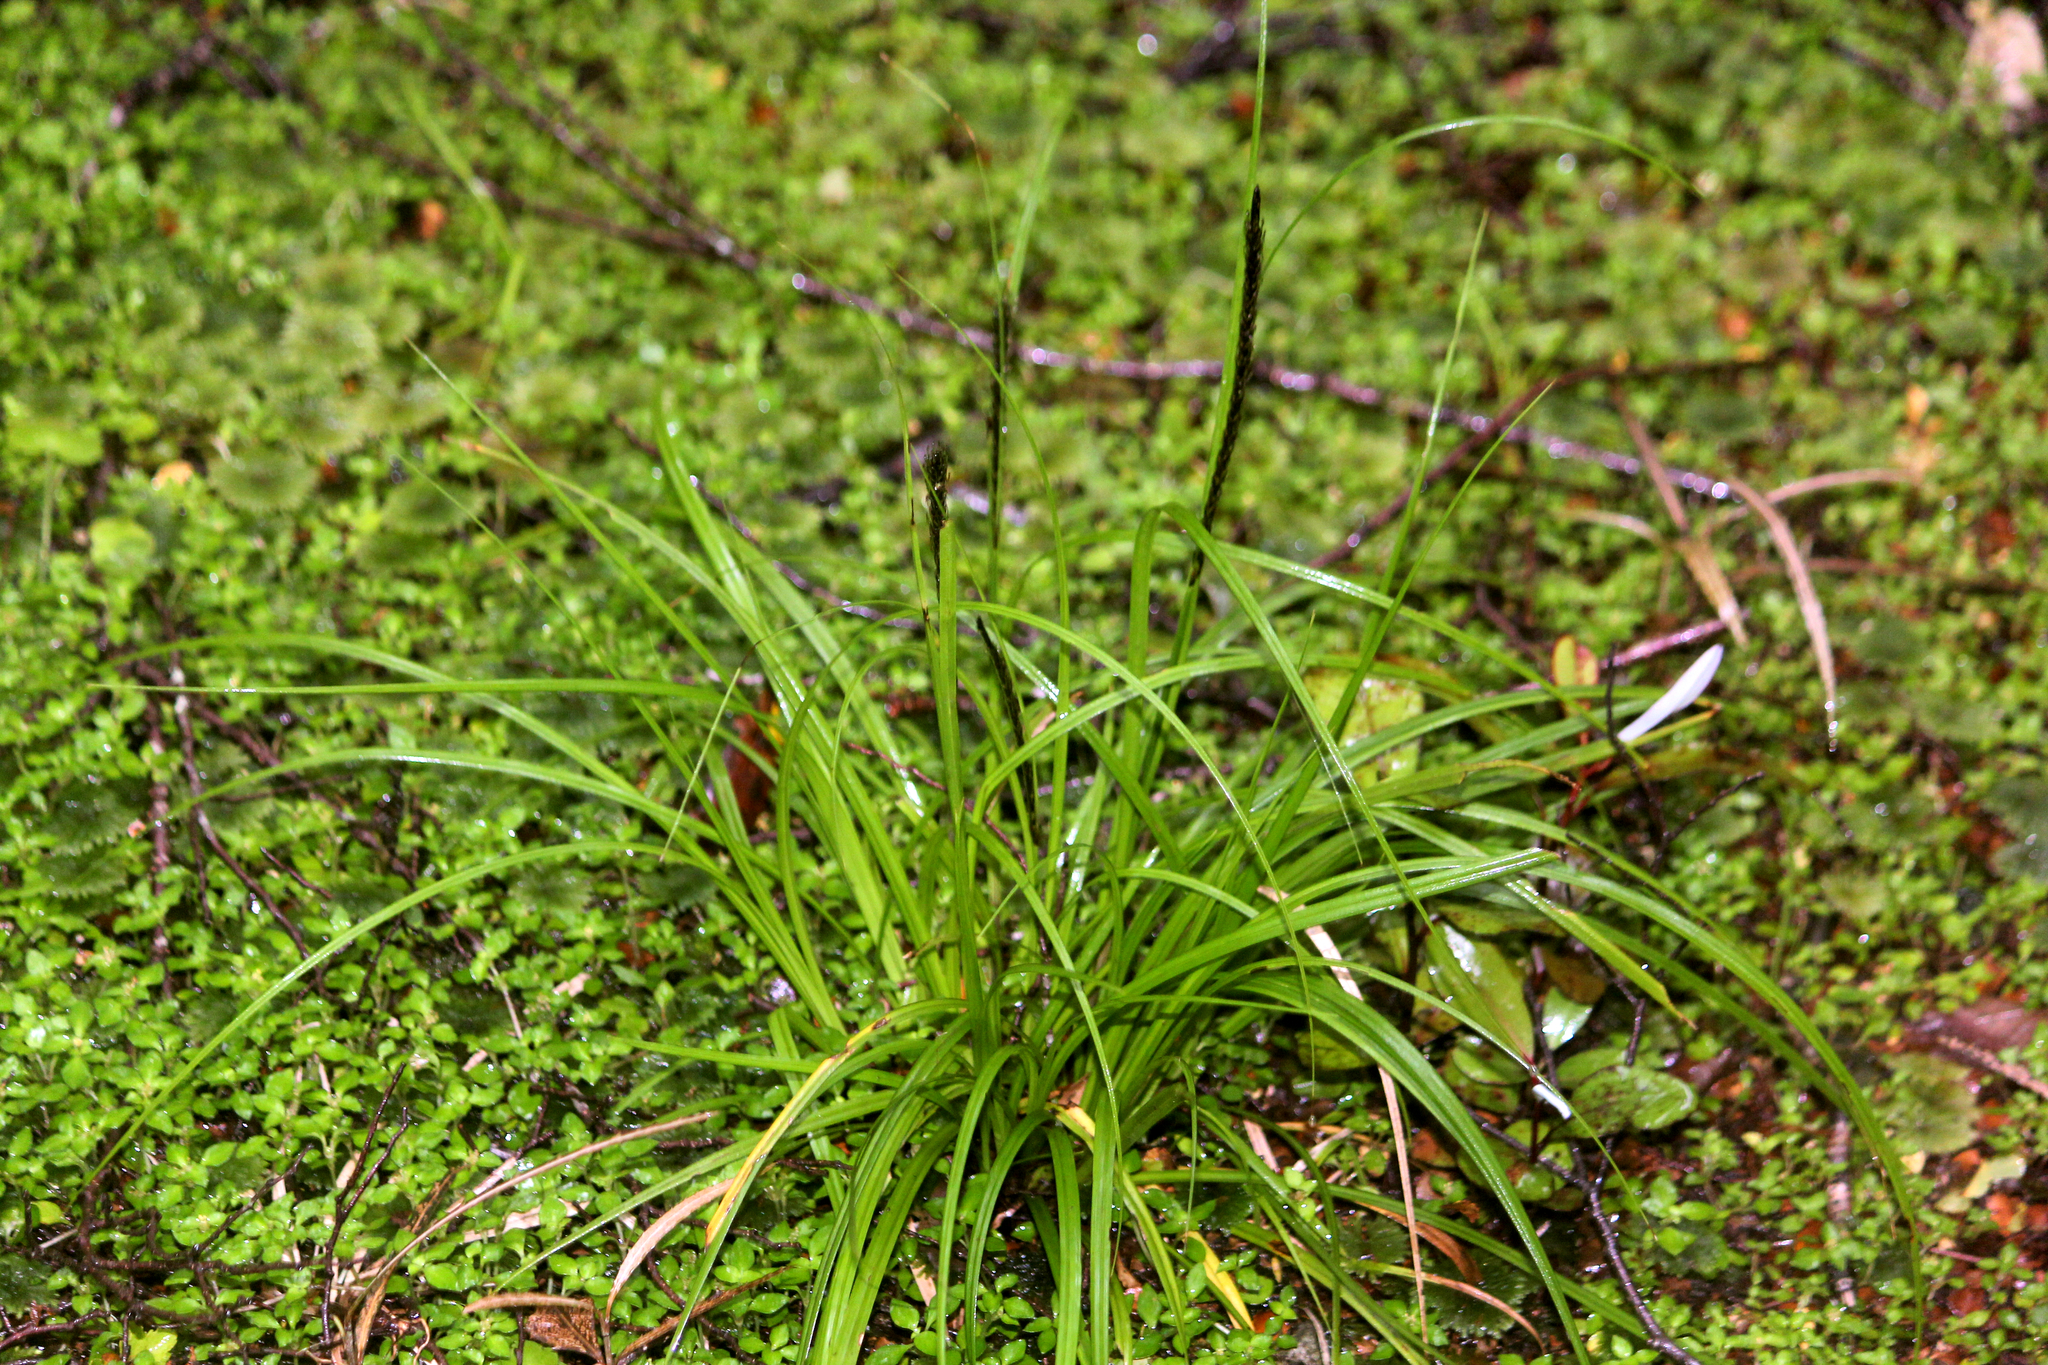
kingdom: Plantae
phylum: Tracheophyta
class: Liliopsida
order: Poales
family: Cyperaceae
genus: Carex
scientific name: Carex uncinata
